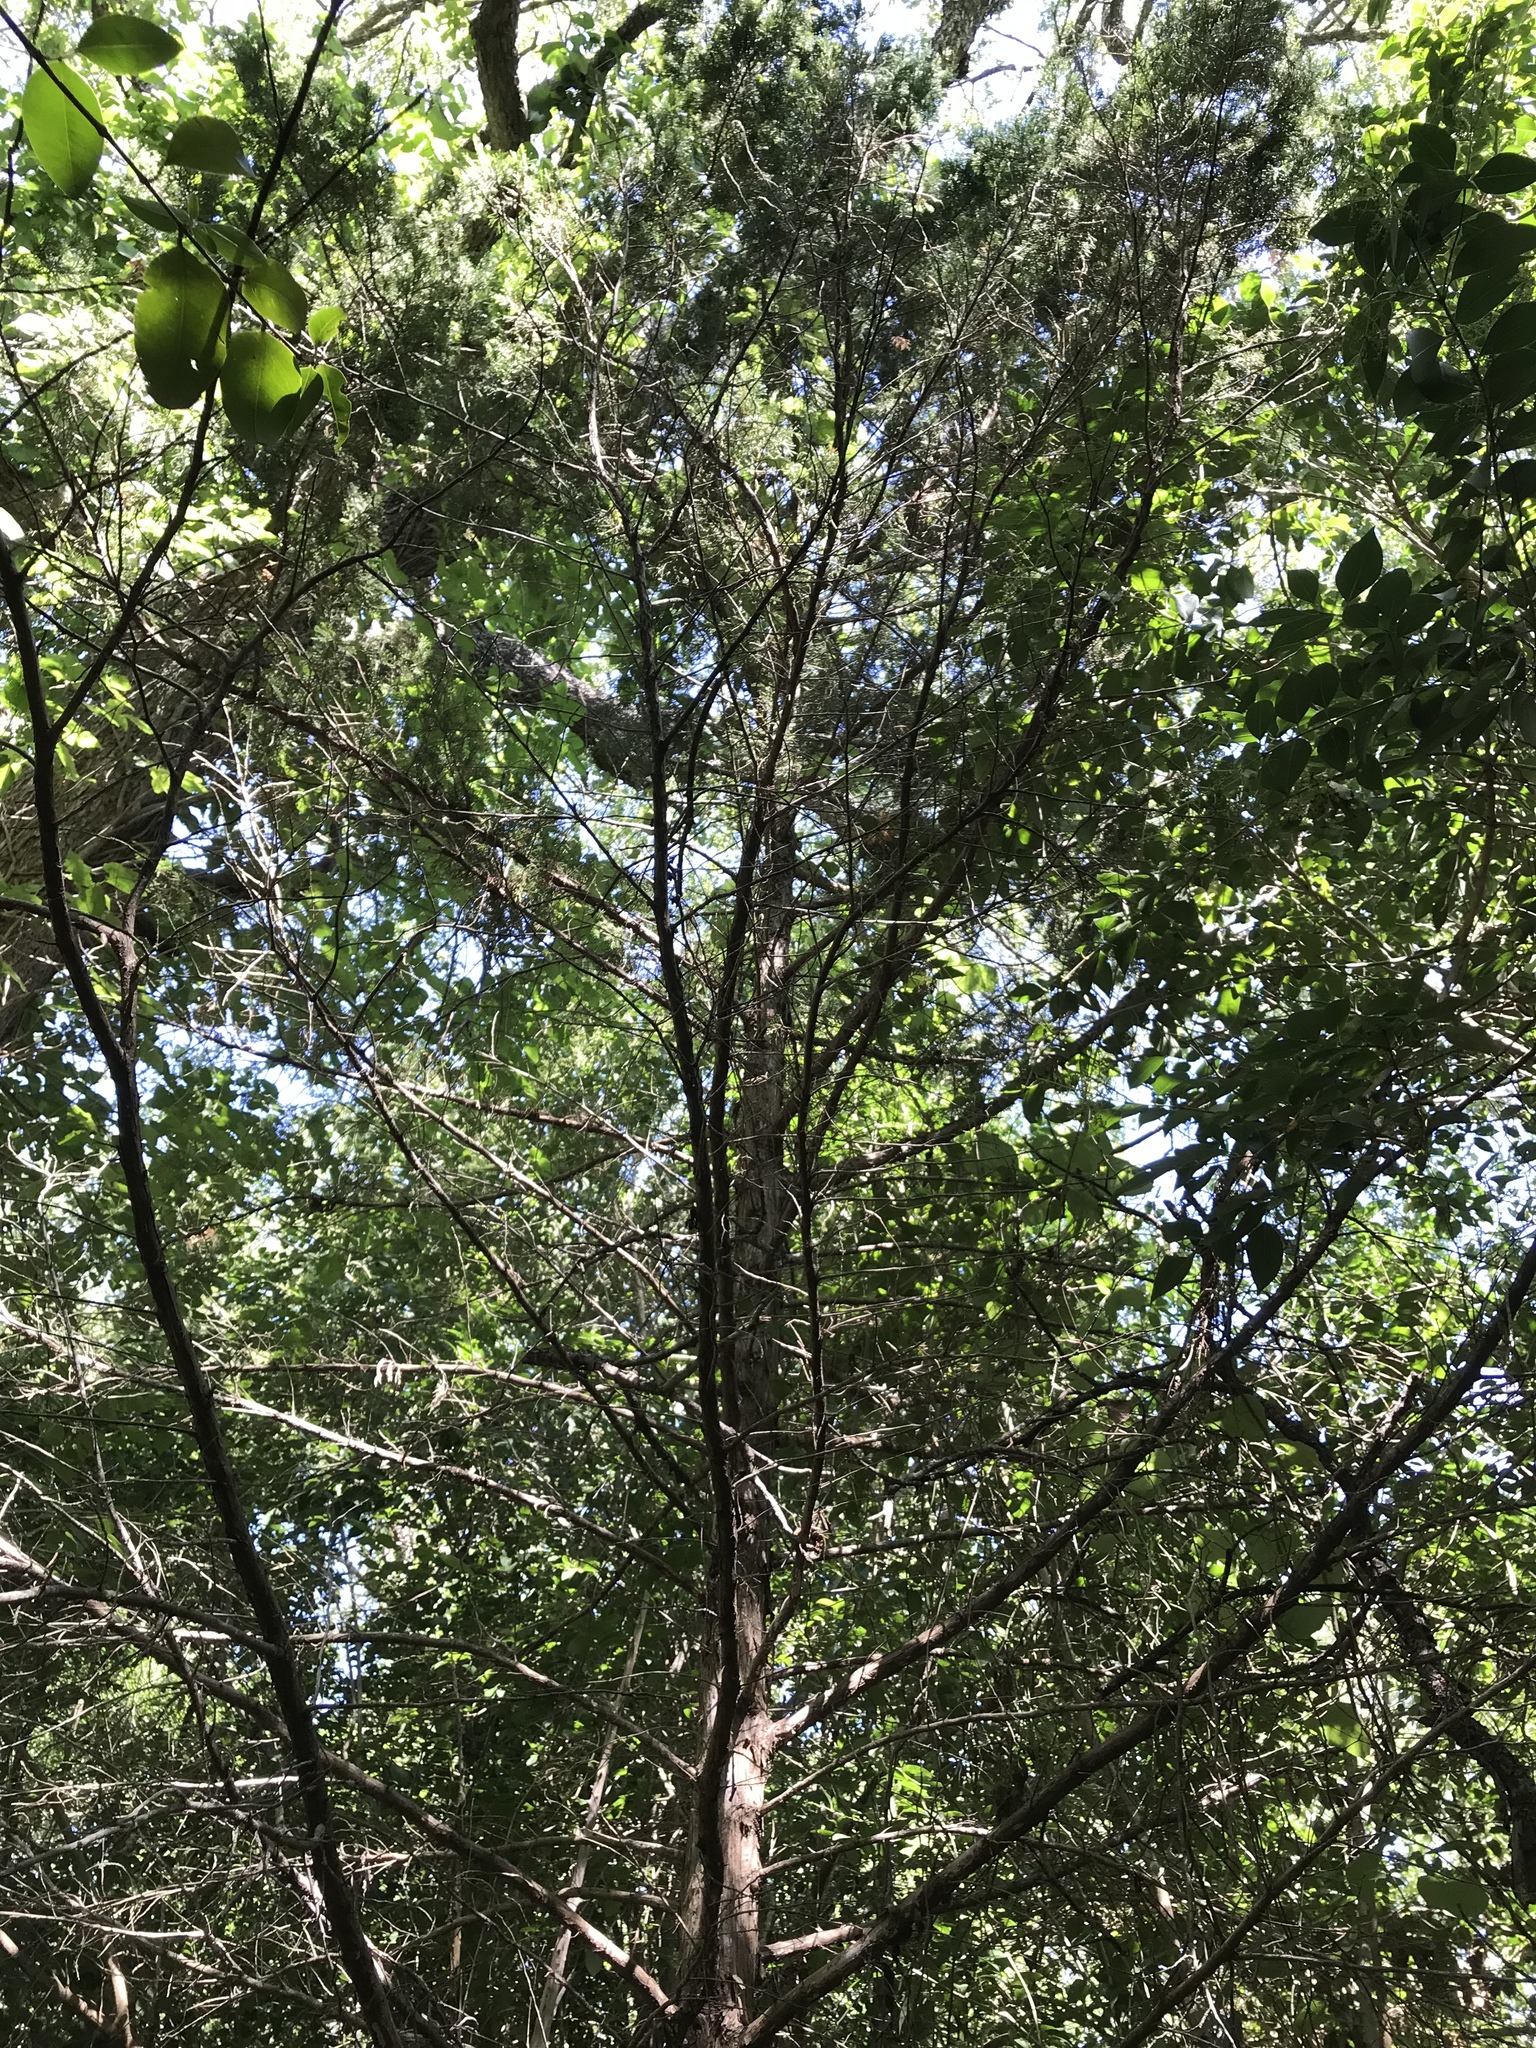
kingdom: Plantae
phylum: Tracheophyta
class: Pinopsida
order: Pinales
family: Cupressaceae
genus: Juniperus
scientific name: Juniperus virginiana
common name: Red juniper
